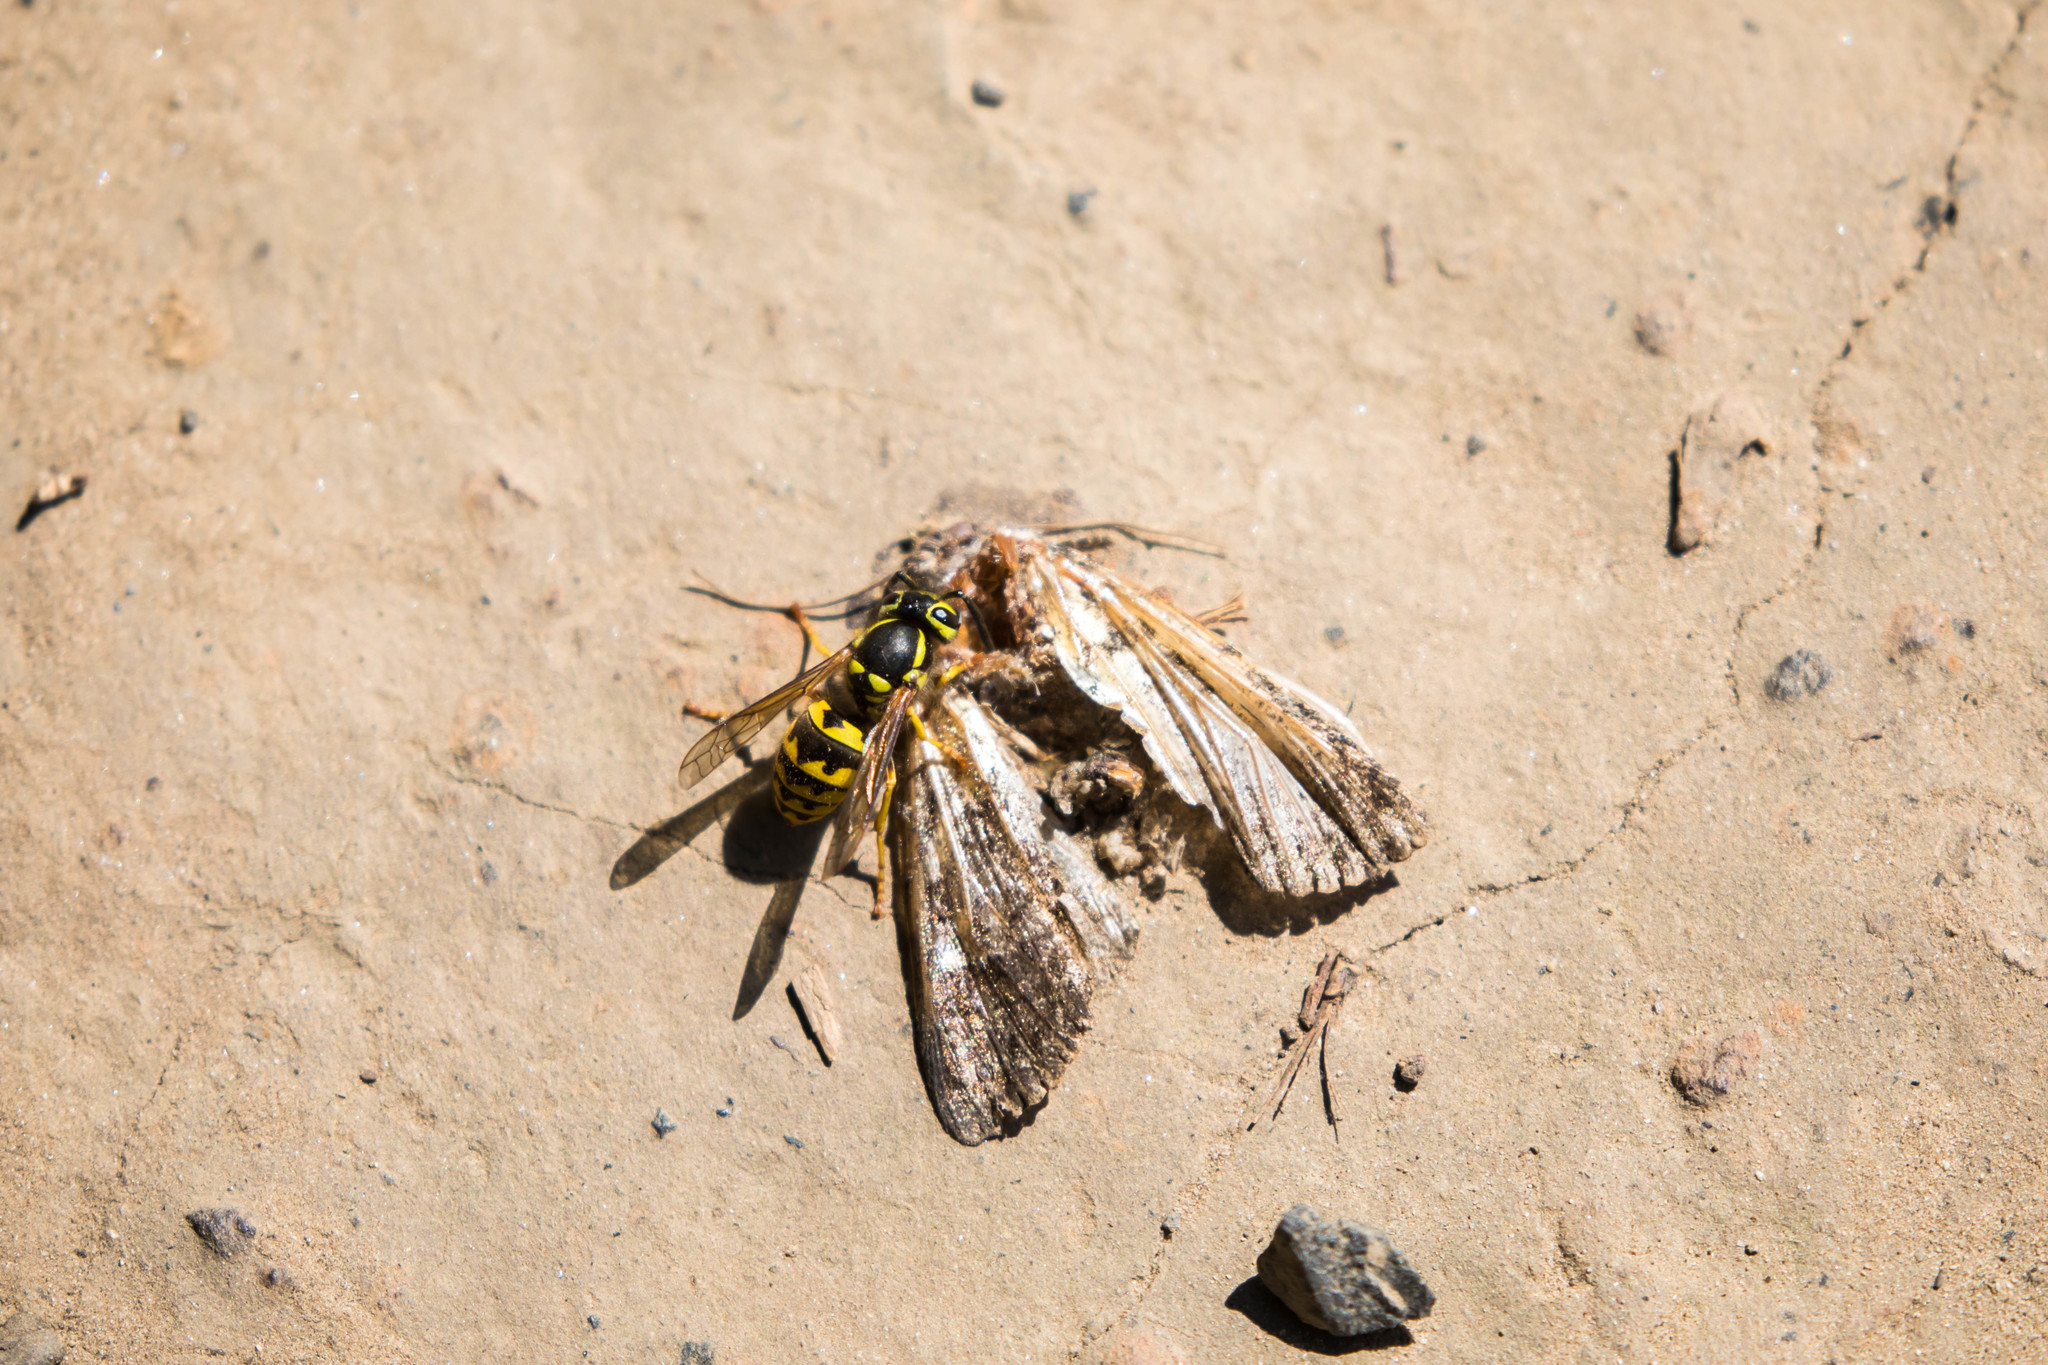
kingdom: Animalia
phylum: Arthropoda
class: Insecta
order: Hymenoptera
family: Vespidae
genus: Vespula
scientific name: Vespula pensylvanica
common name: Western yellowjacket
